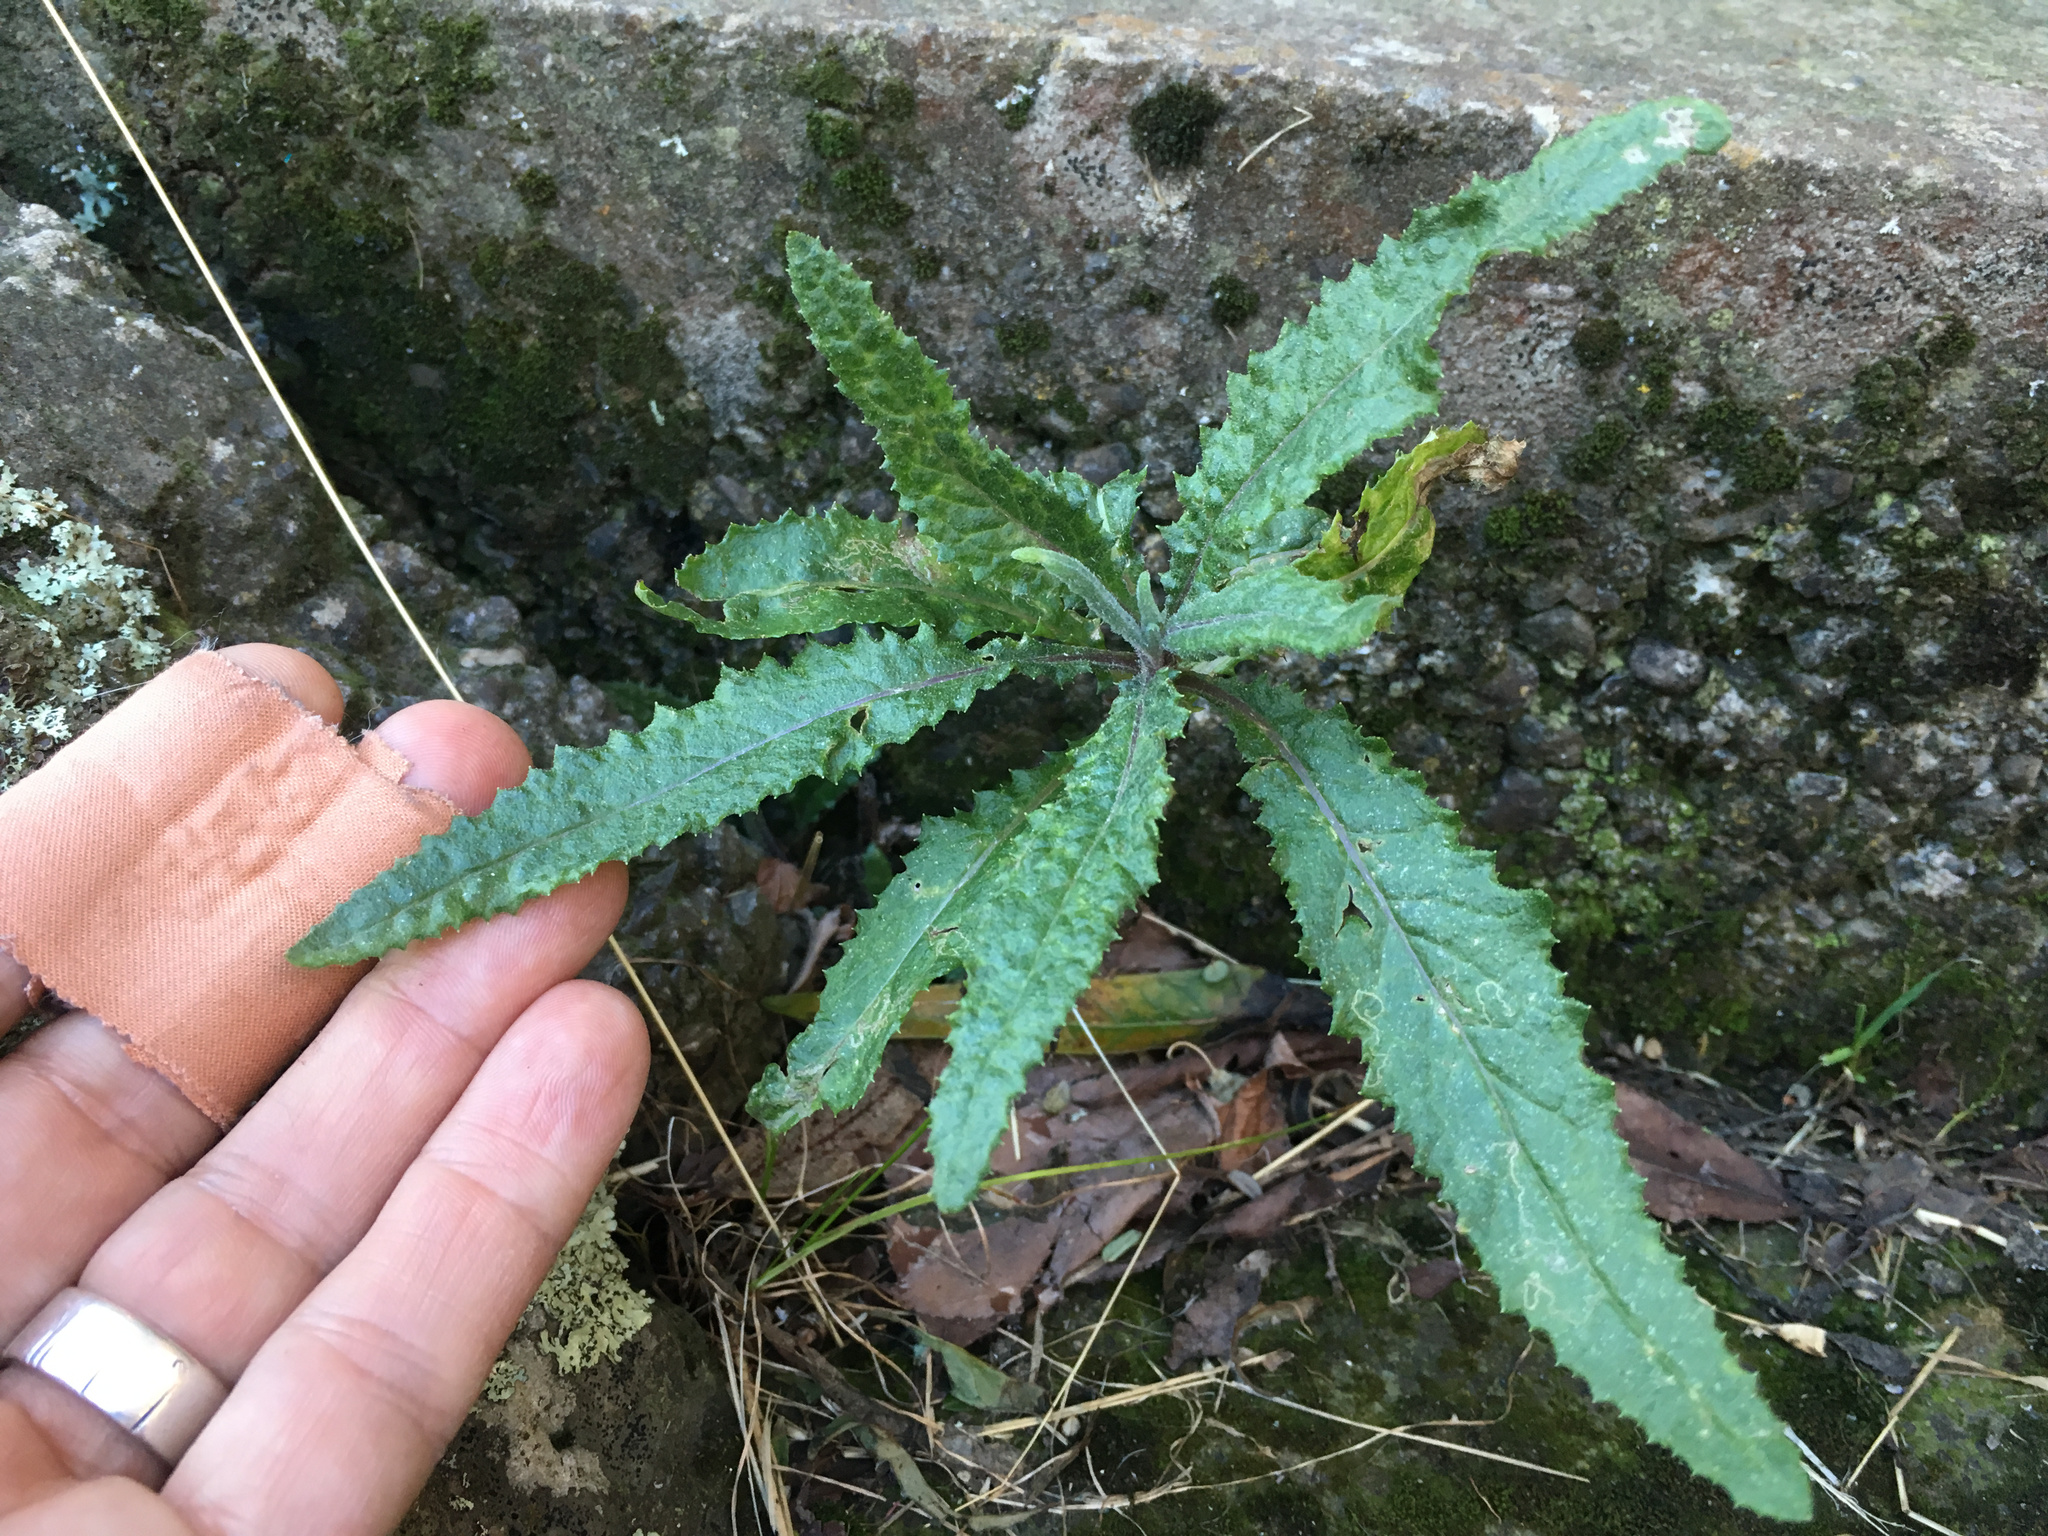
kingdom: Plantae
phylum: Tracheophyta
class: Magnoliopsida
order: Asterales
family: Asteraceae
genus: Senecio
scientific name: Senecio minimus
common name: Toothed fireweed
